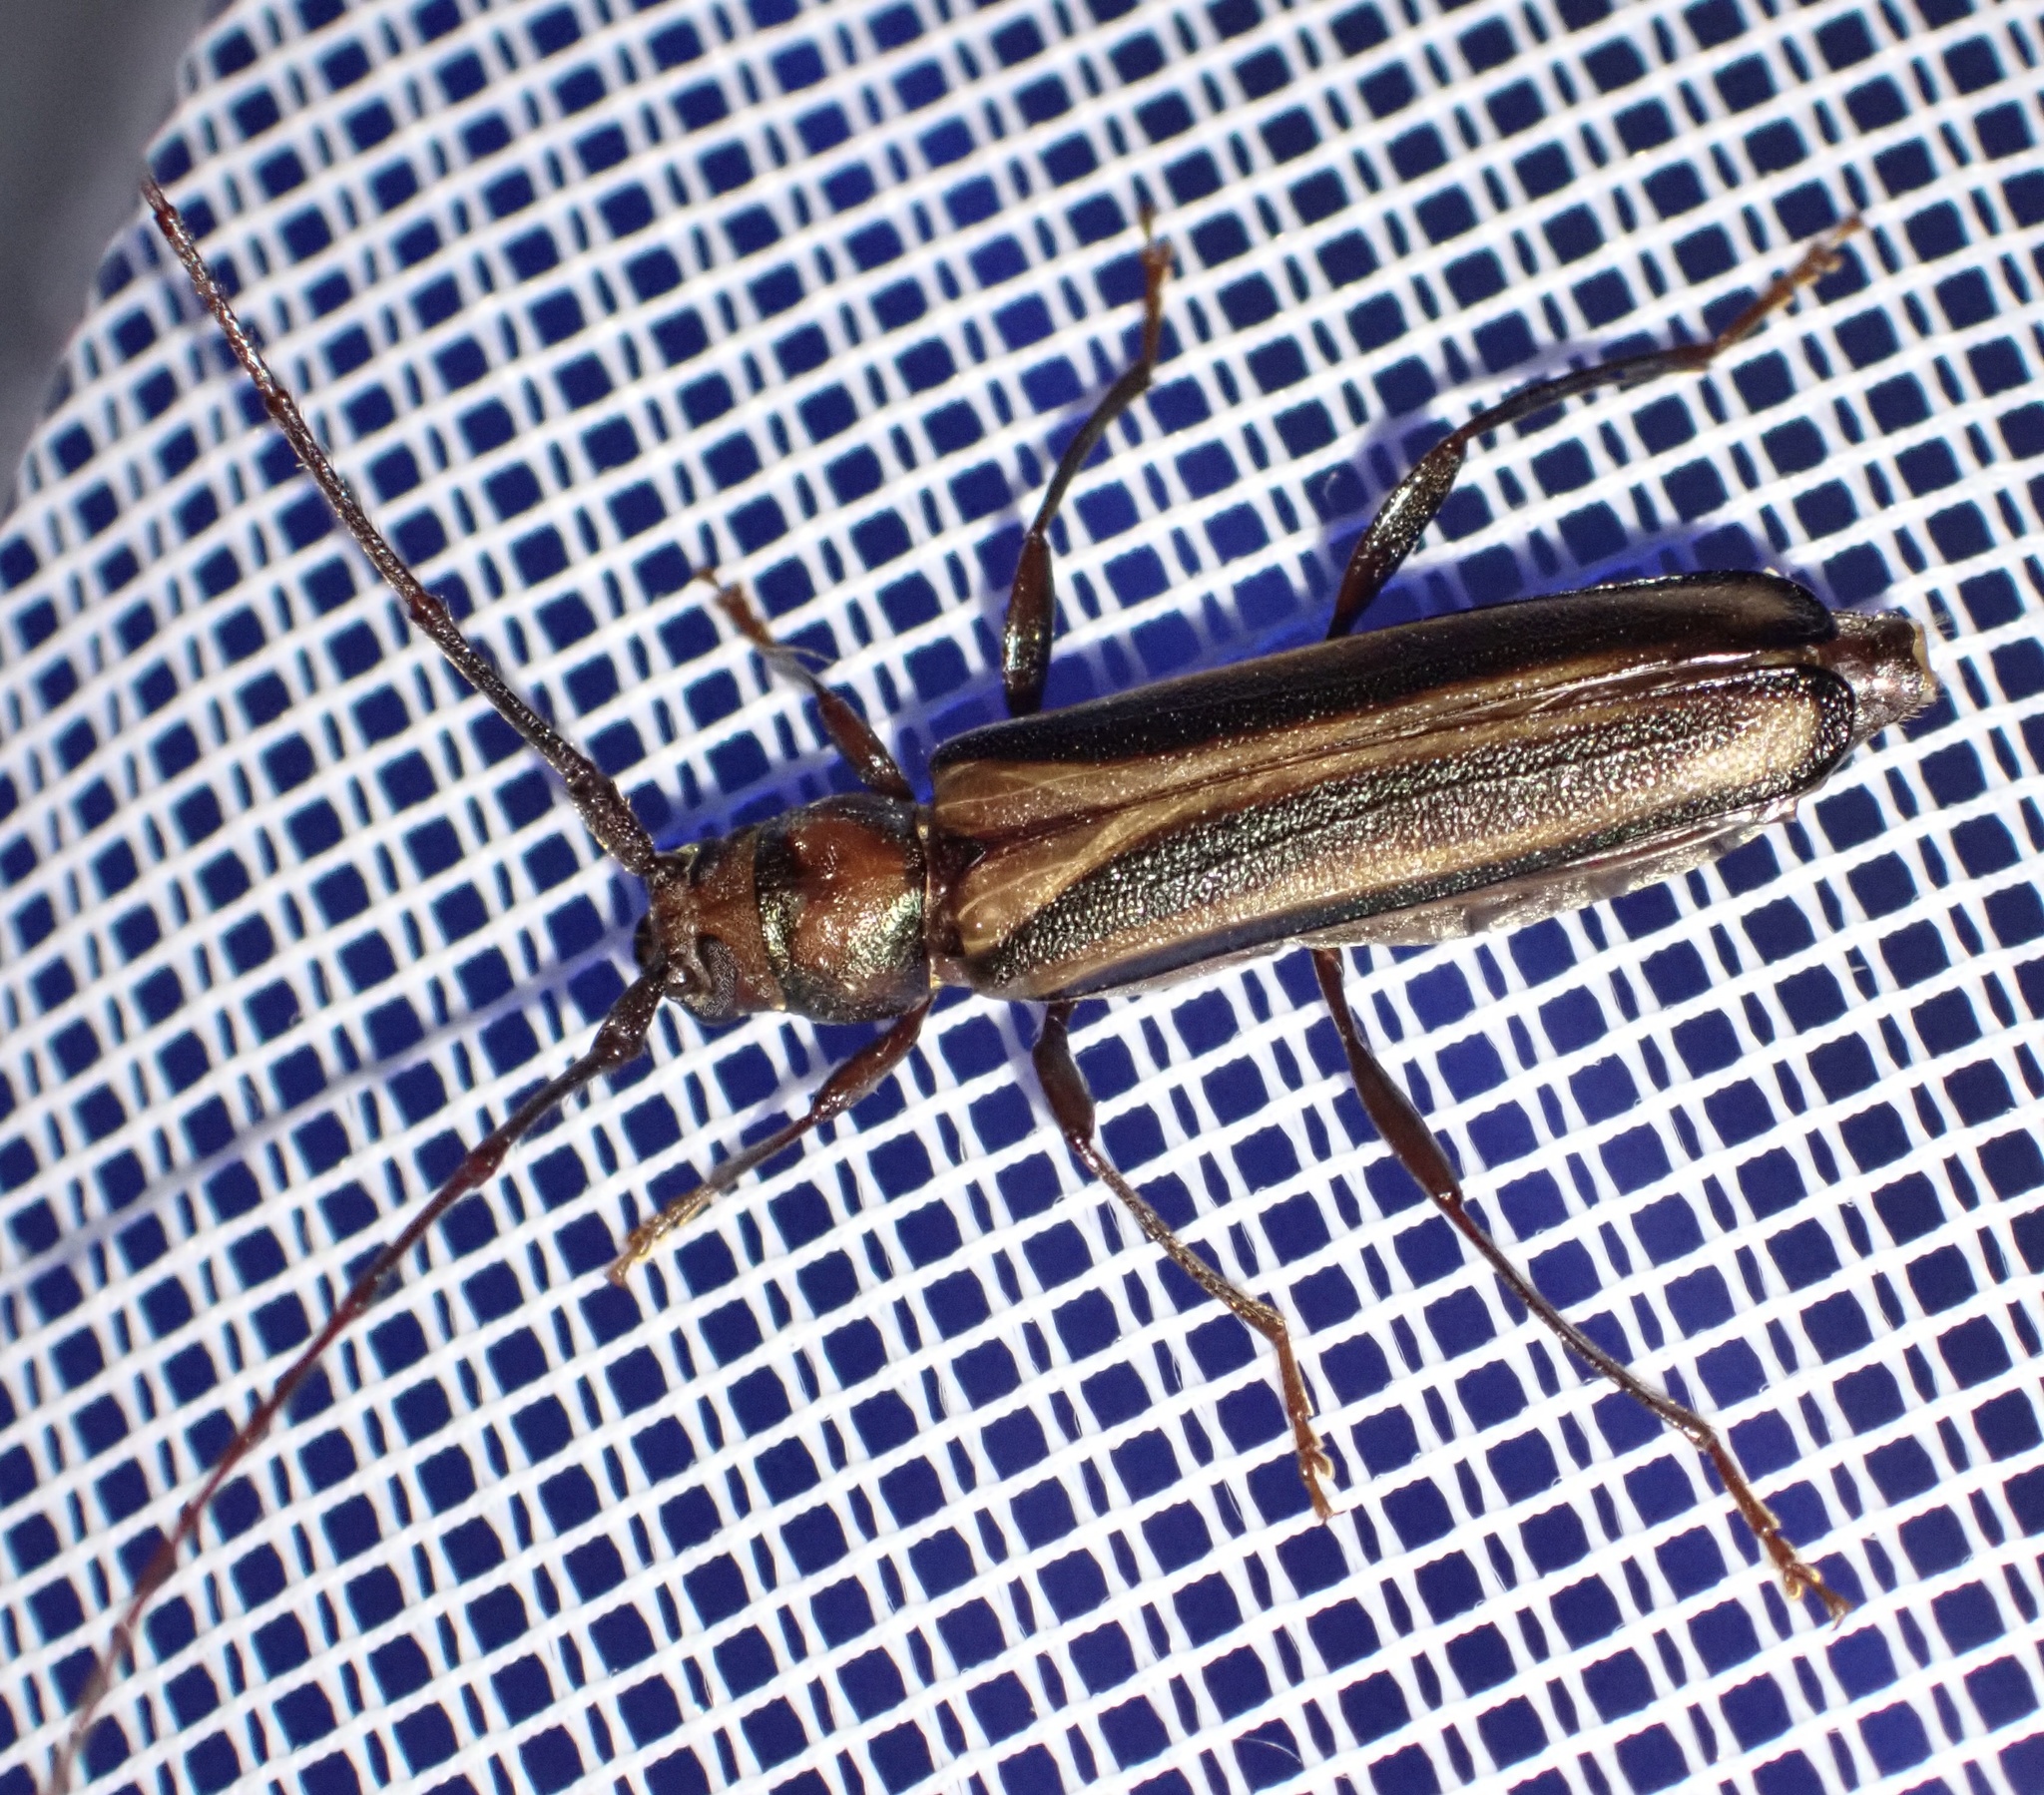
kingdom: Animalia
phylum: Arthropoda
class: Insecta
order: Coleoptera
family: Cerambycidae
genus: Xystrocera
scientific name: Xystrocera dispar
